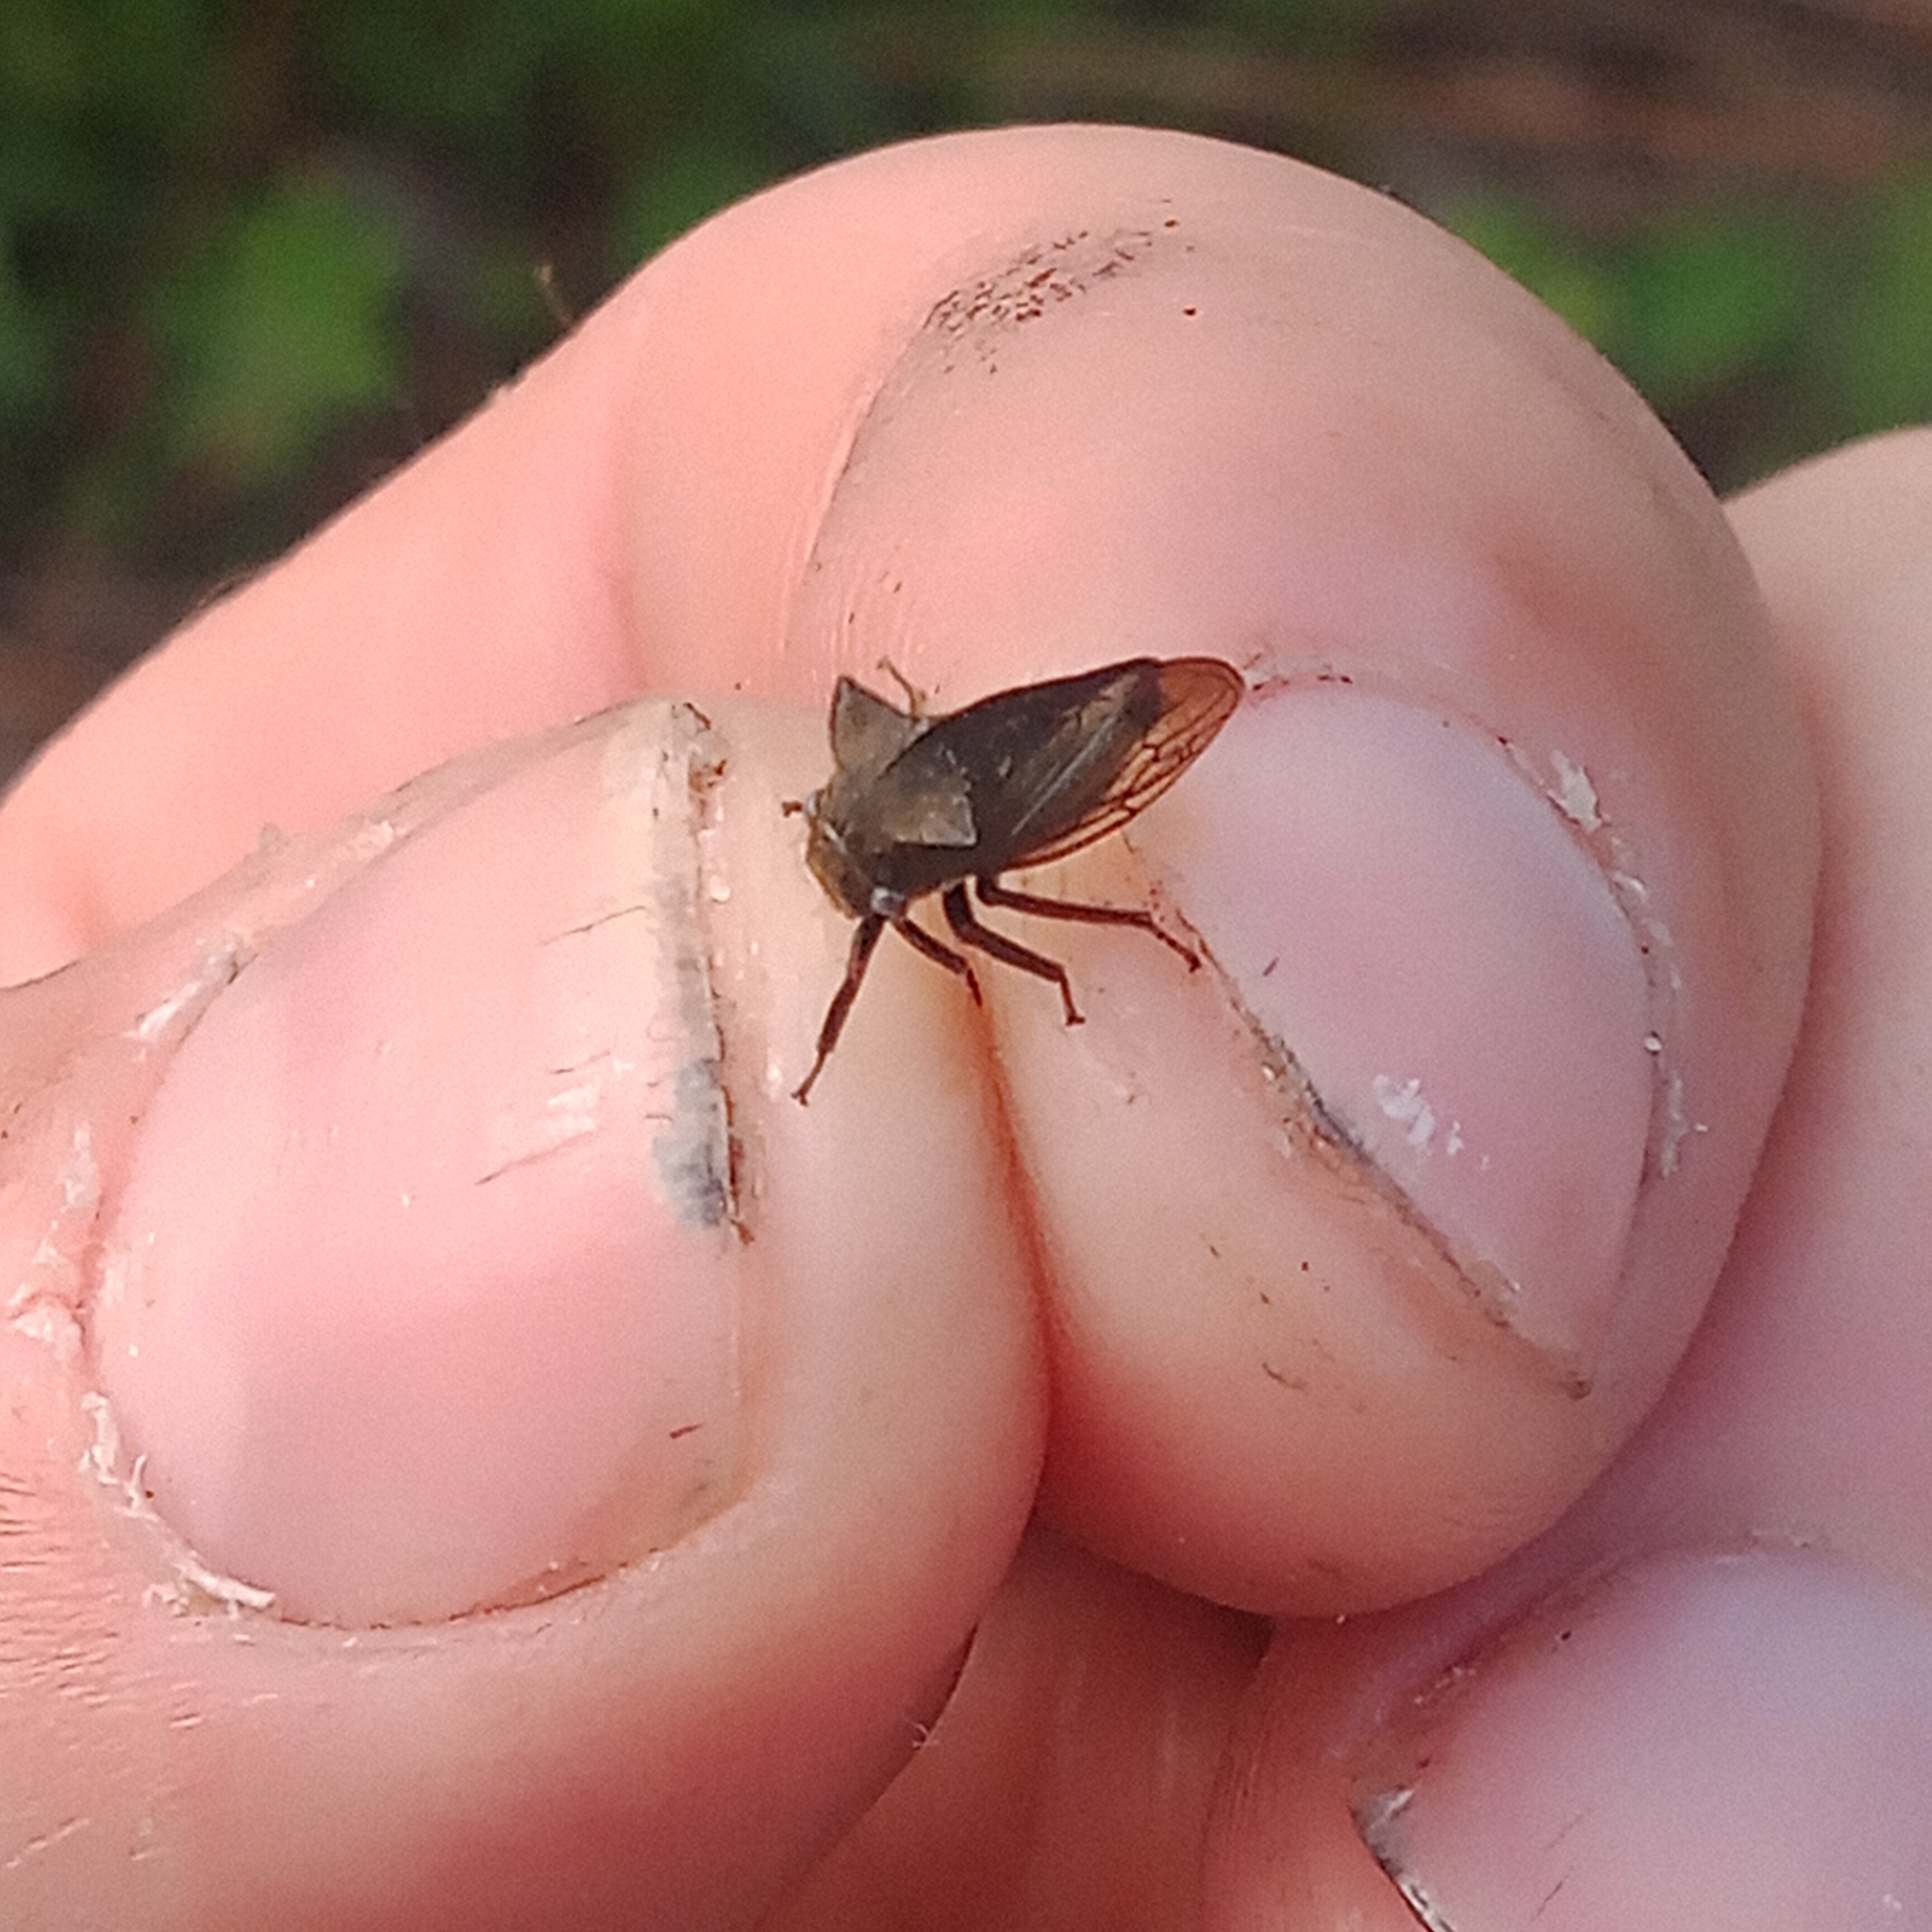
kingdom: Animalia
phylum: Arthropoda
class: Insecta
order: Hemiptera
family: Membracidae
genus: Centrotus
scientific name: Centrotus cornuta
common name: Treehopper
